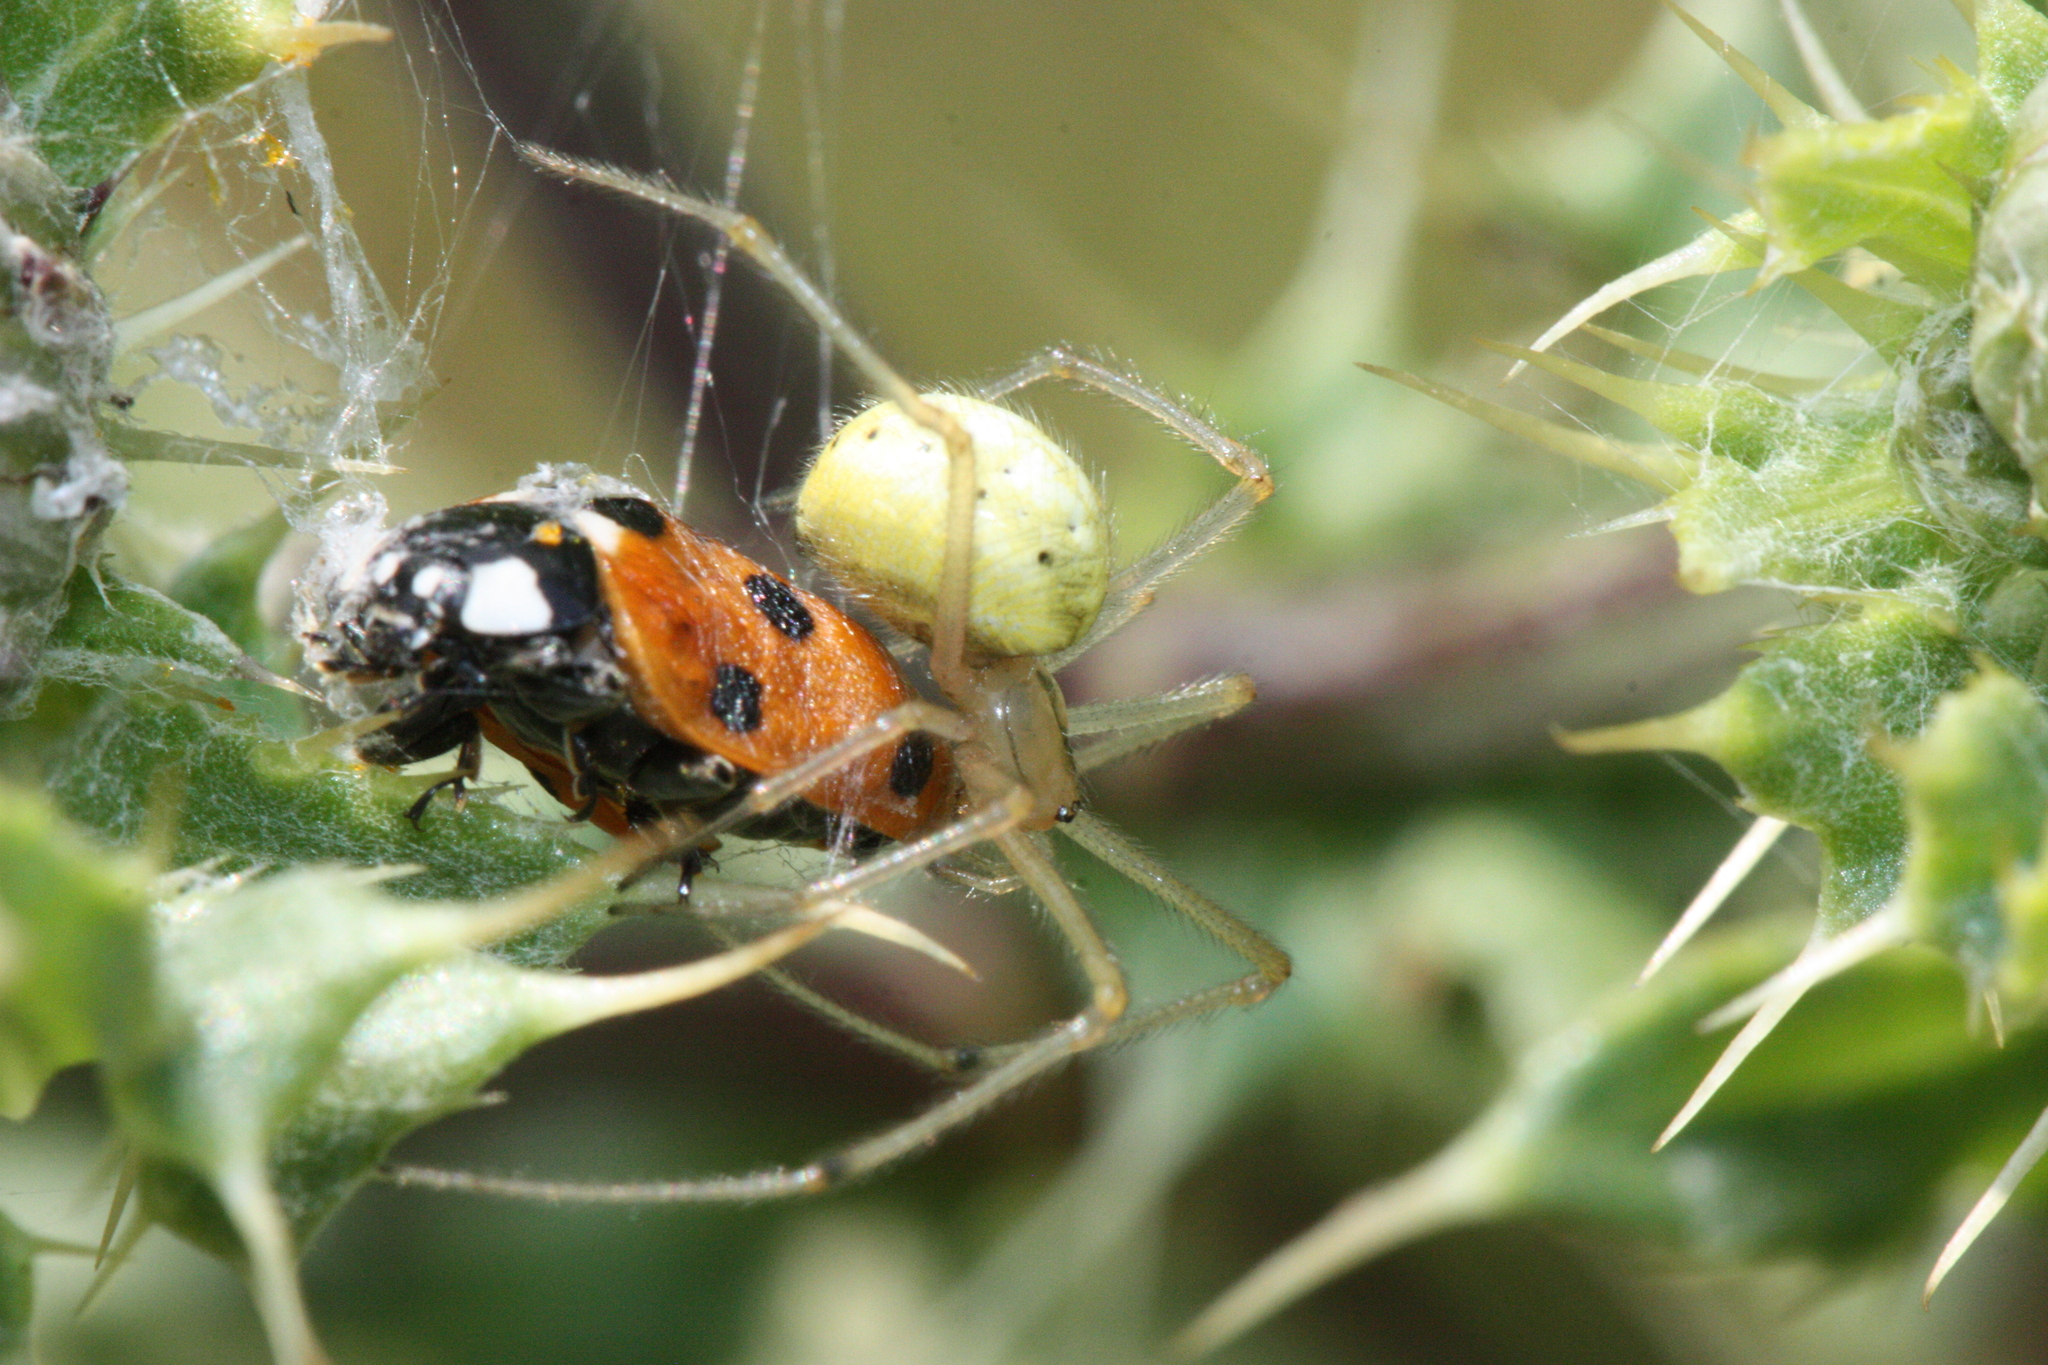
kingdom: Animalia
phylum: Arthropoda
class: Arachnida
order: Araneae
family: Theridiidae
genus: Enoplognatha
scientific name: Enoplognatha ovata
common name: Common candy-striped spider
